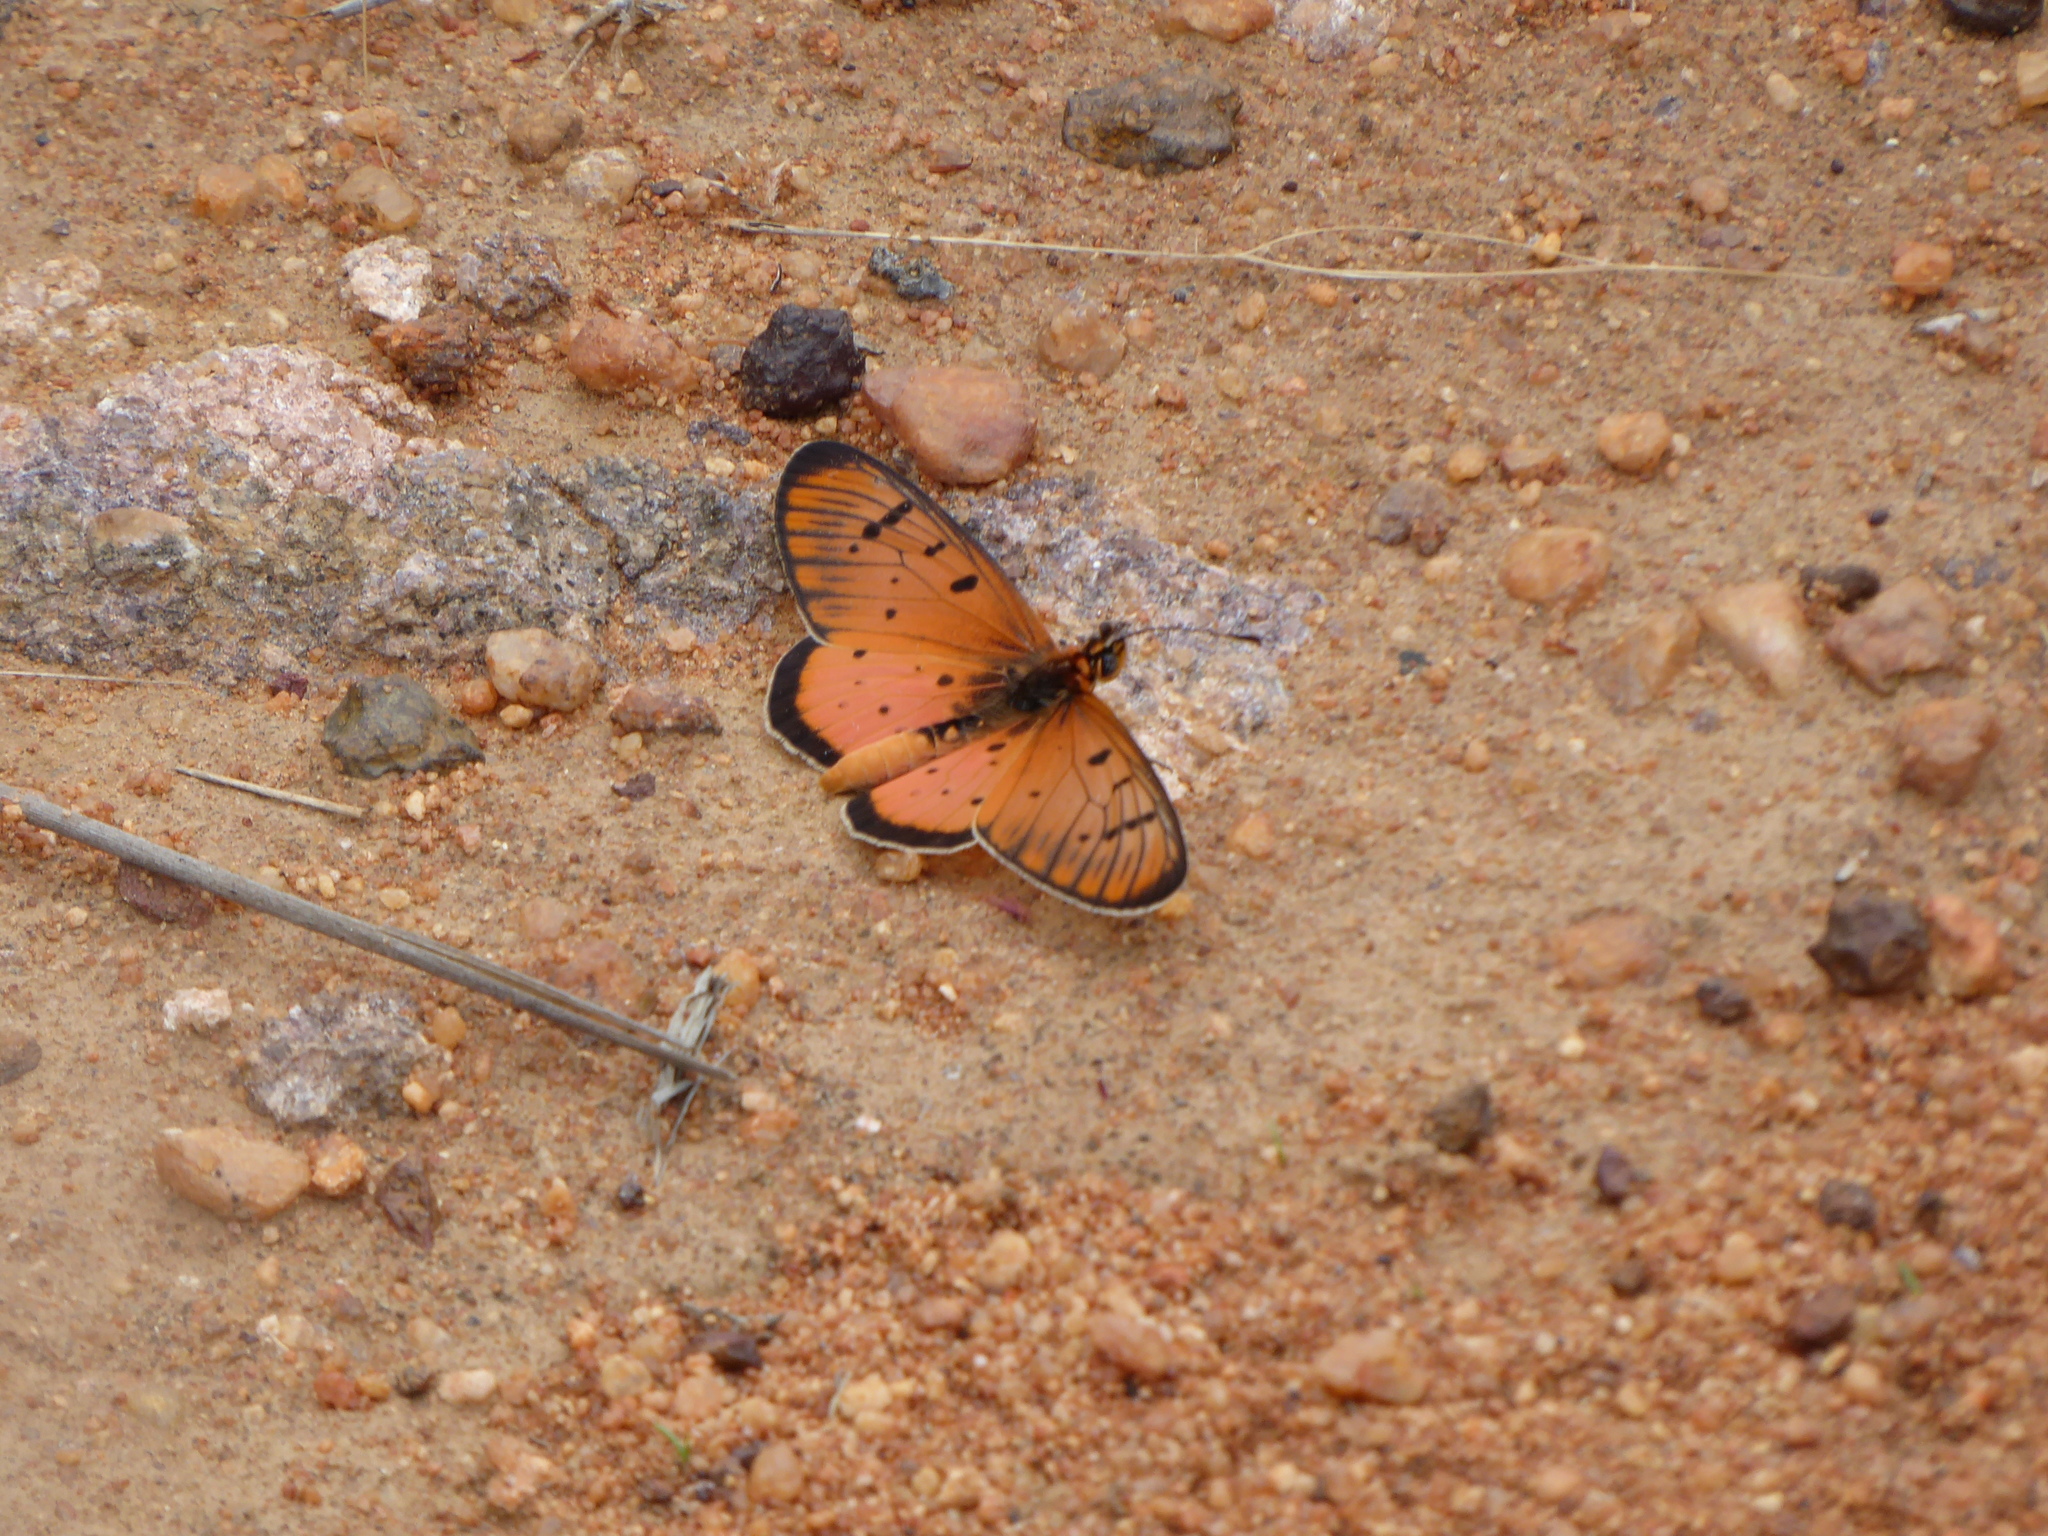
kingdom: Animalia
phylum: Arthropoda
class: Insecta
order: Lepidoptera
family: Nymphalidae
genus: Stephenia
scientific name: Stephenia
